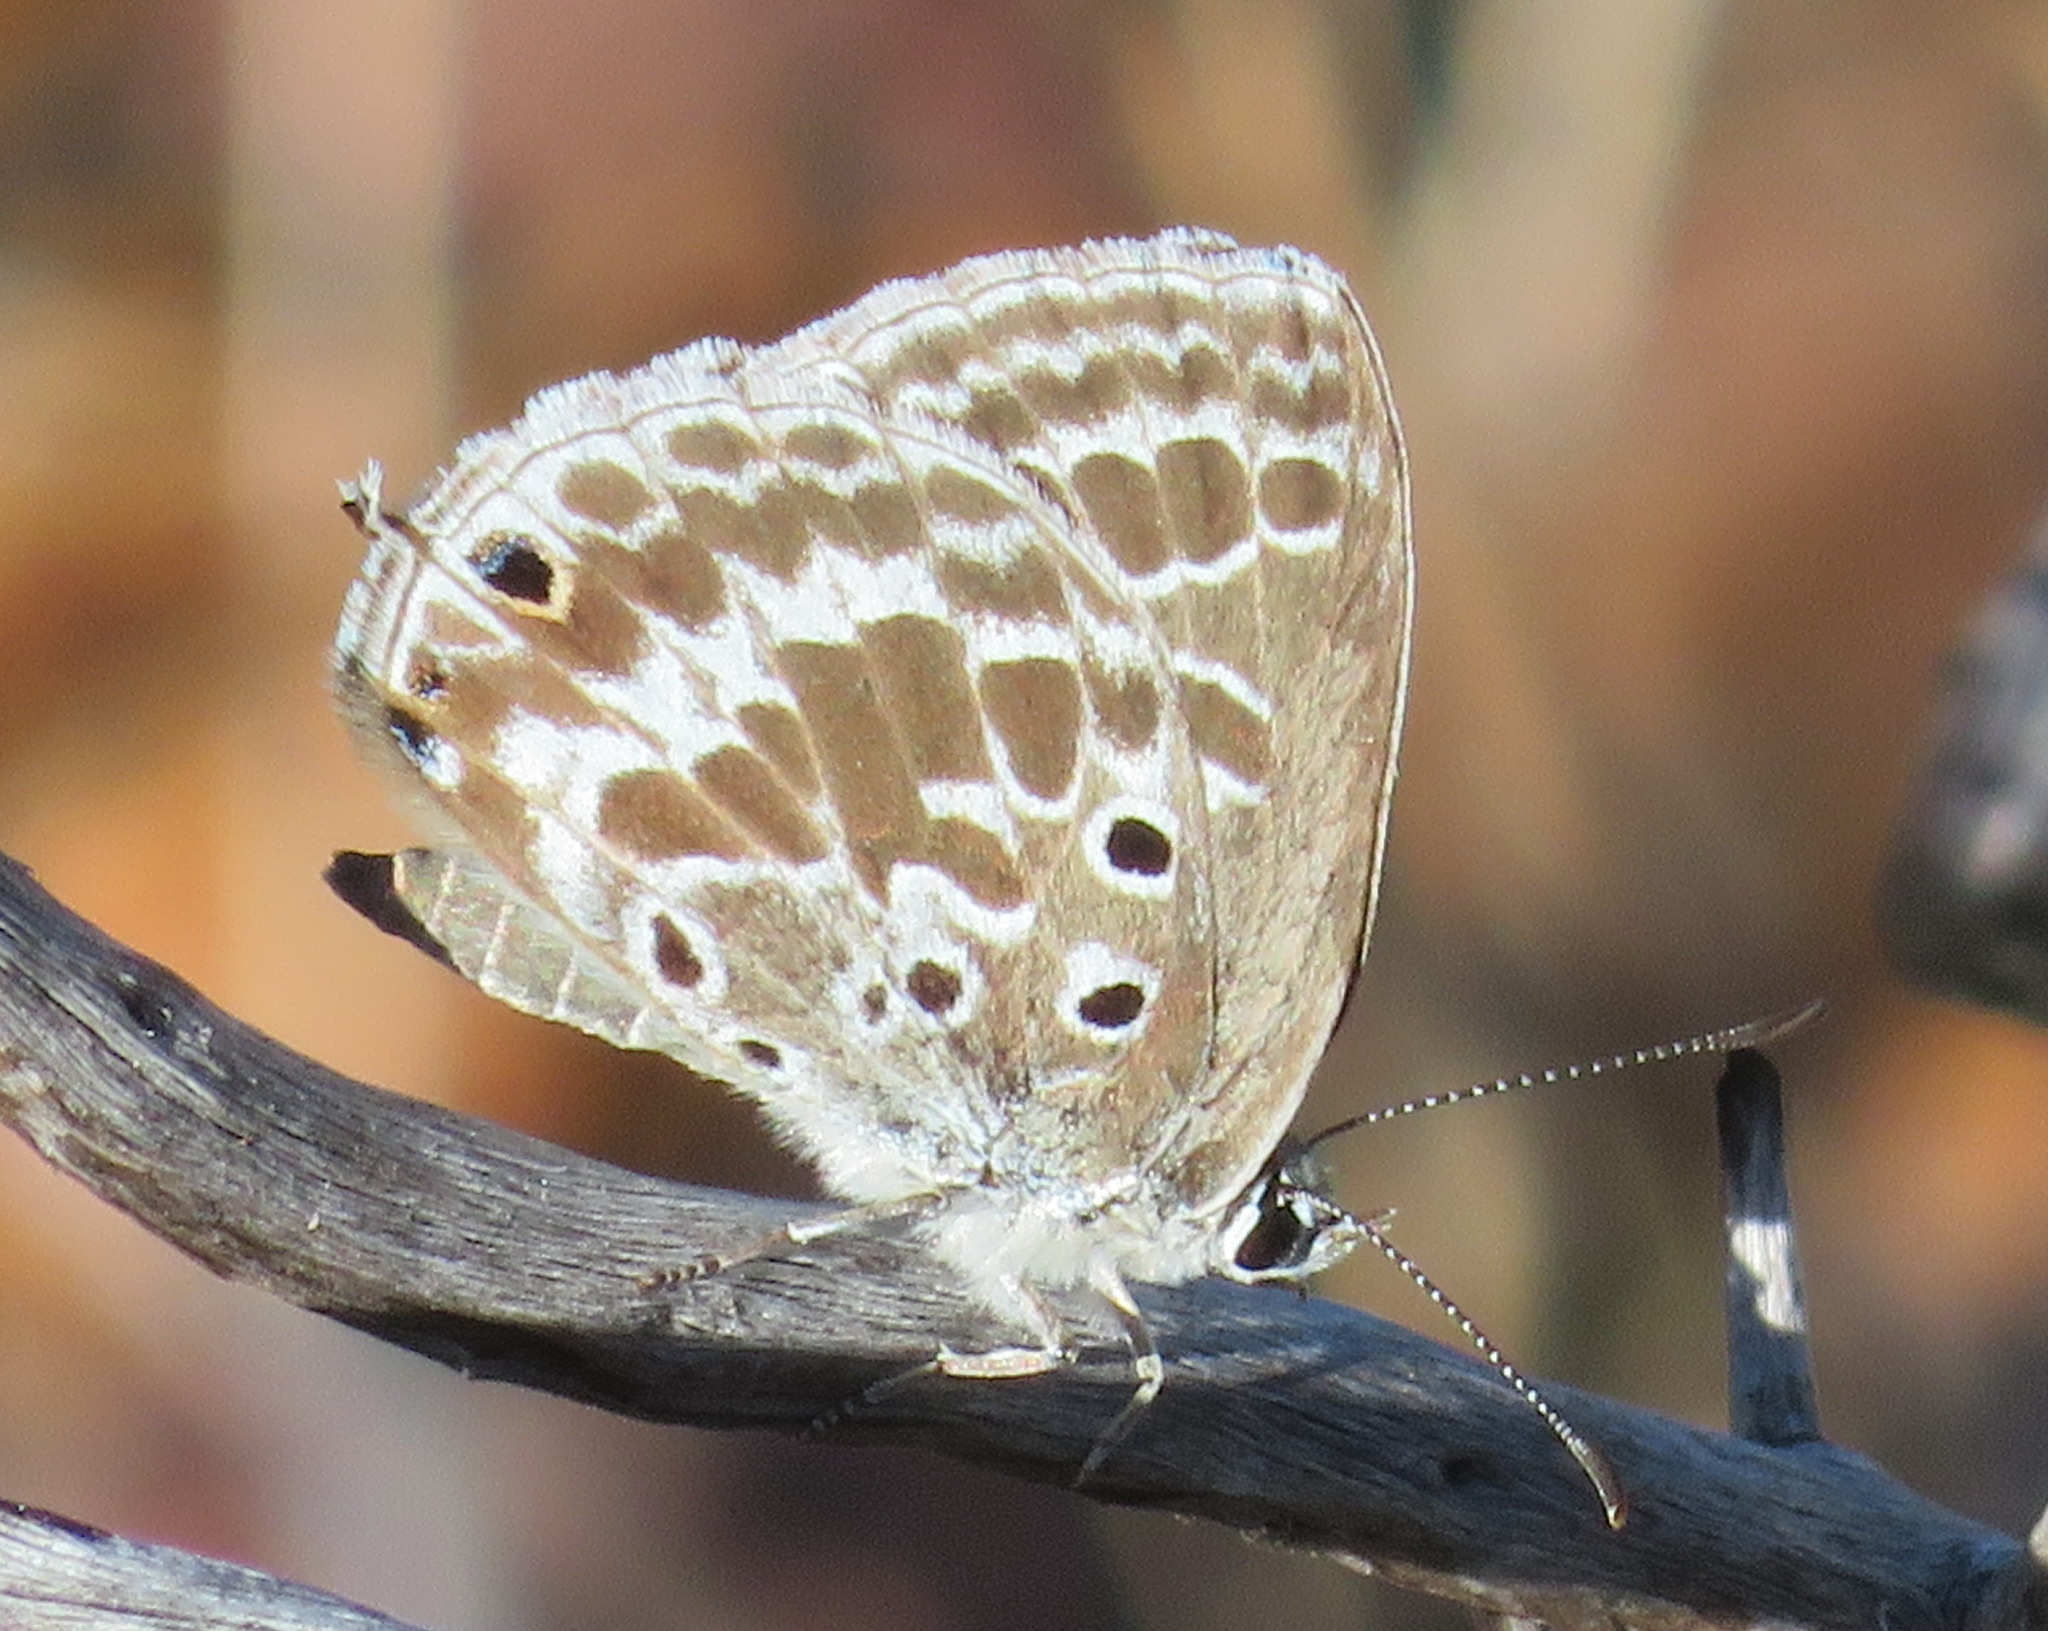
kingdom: Animalia
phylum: Arthropoda
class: Insecta
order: Lepidoptera
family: Lycaenidae
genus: Lepidochrysops
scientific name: Lepidochrysops asteris
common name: Brilliant blue
